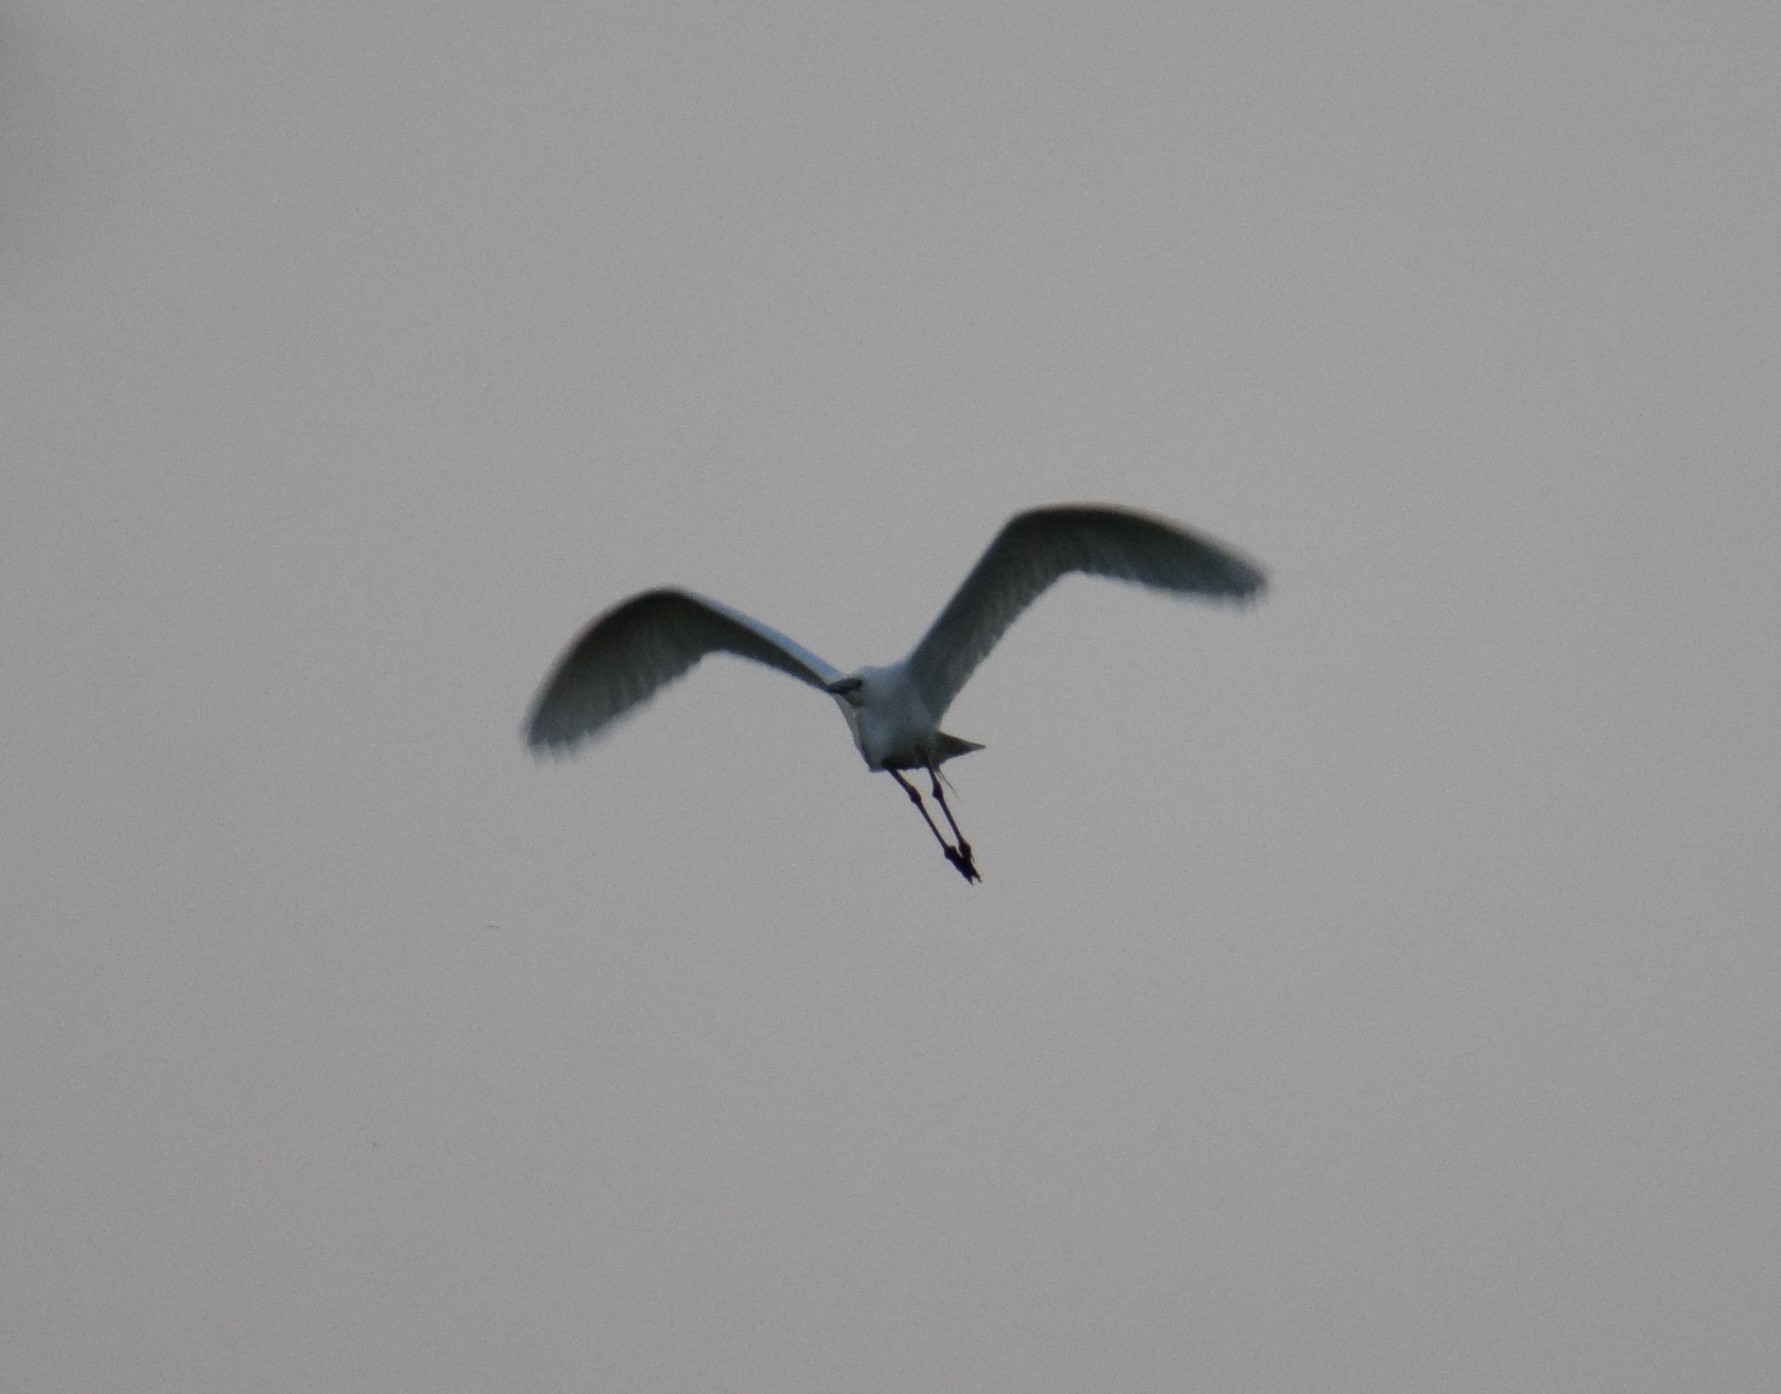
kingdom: Animalia
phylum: Chordata
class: Aves
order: Pelecaniformes
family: Ardeidae
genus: Ardea
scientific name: Ardea alba
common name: Great egret
